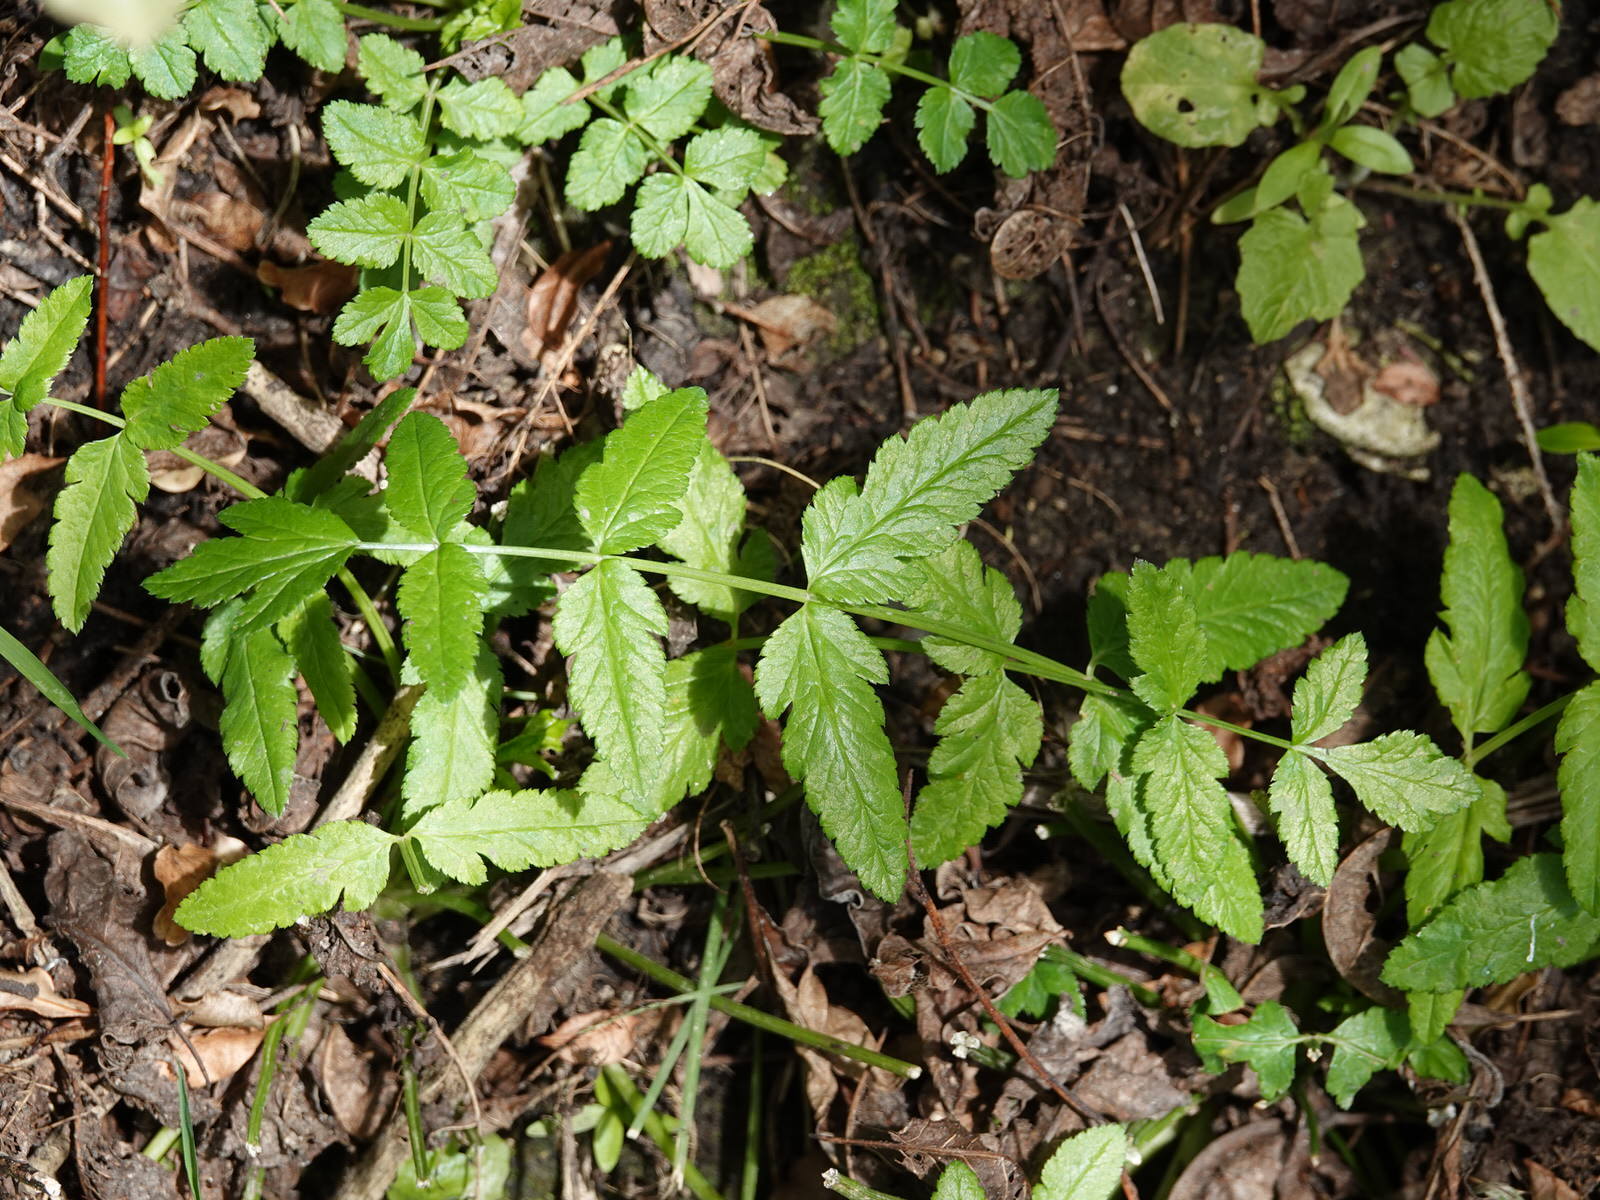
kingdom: Plantae
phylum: Tracheophyta
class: Magnoliopsida
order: Geraniales
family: Geraniaceae
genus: Erodium
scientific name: Erodium moschatum
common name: Musk stork's-bill
